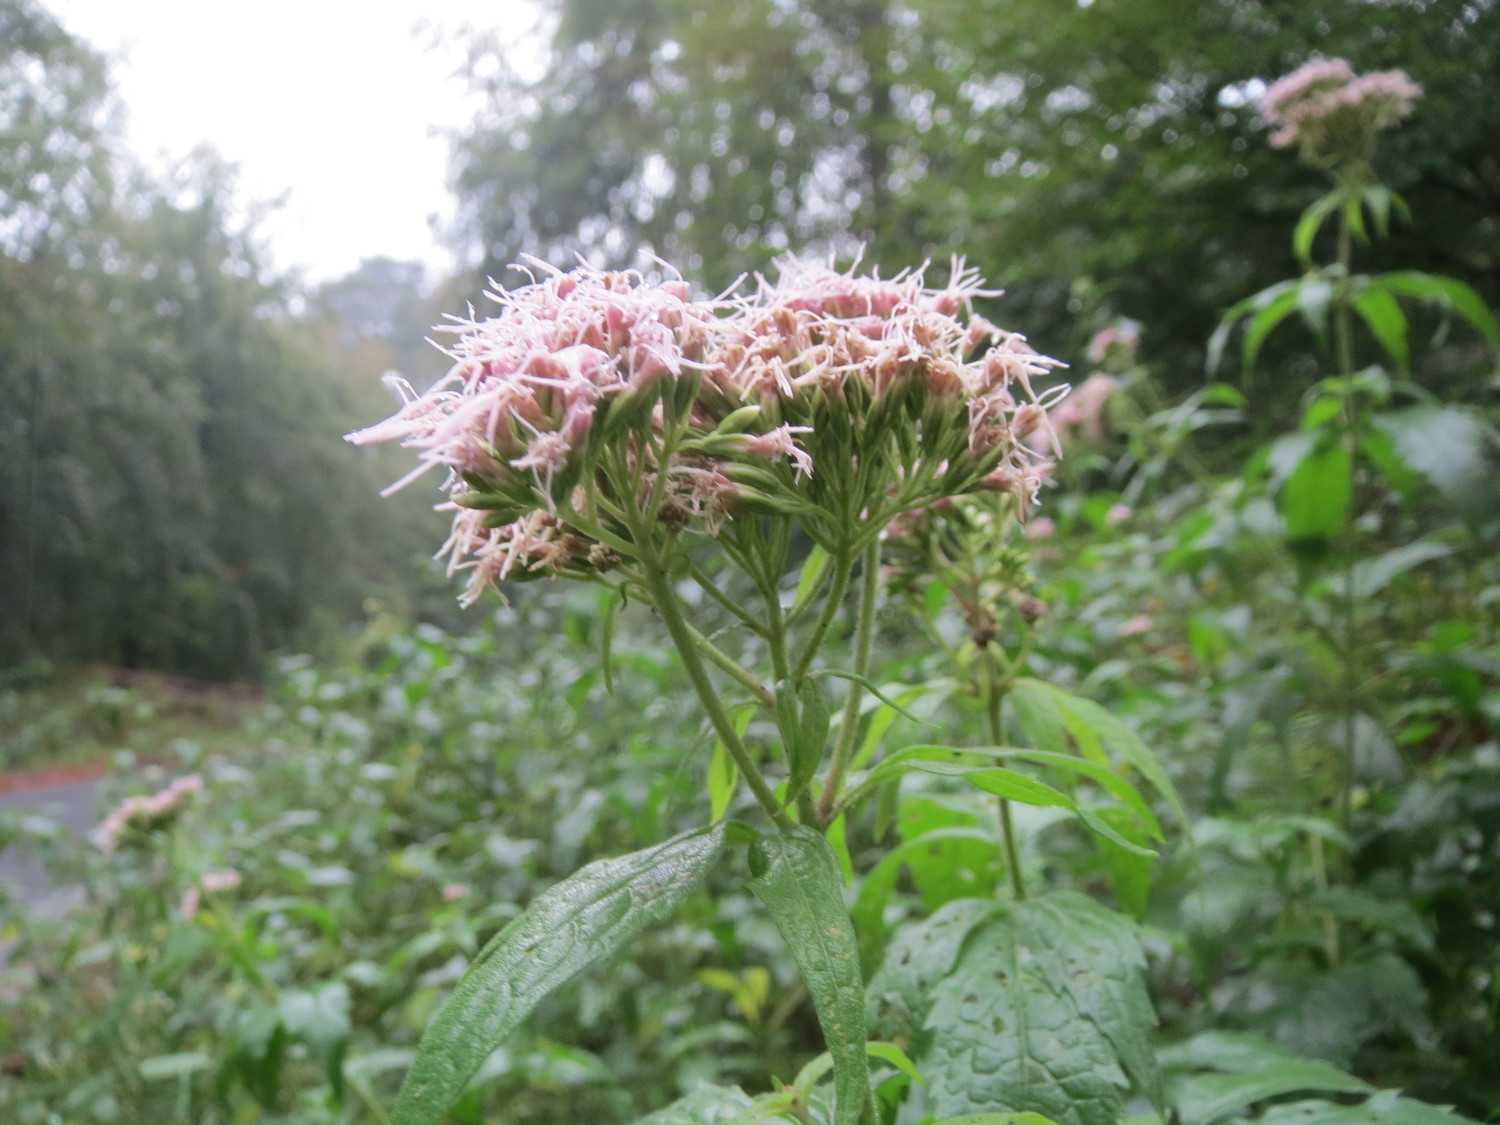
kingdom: Plantae
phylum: Tracheophyta
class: Magnoliopsida
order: Asterales
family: Asteraceae
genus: Eupatorium
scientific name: Eupatorium cannabinum
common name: Hemp-agrimony
